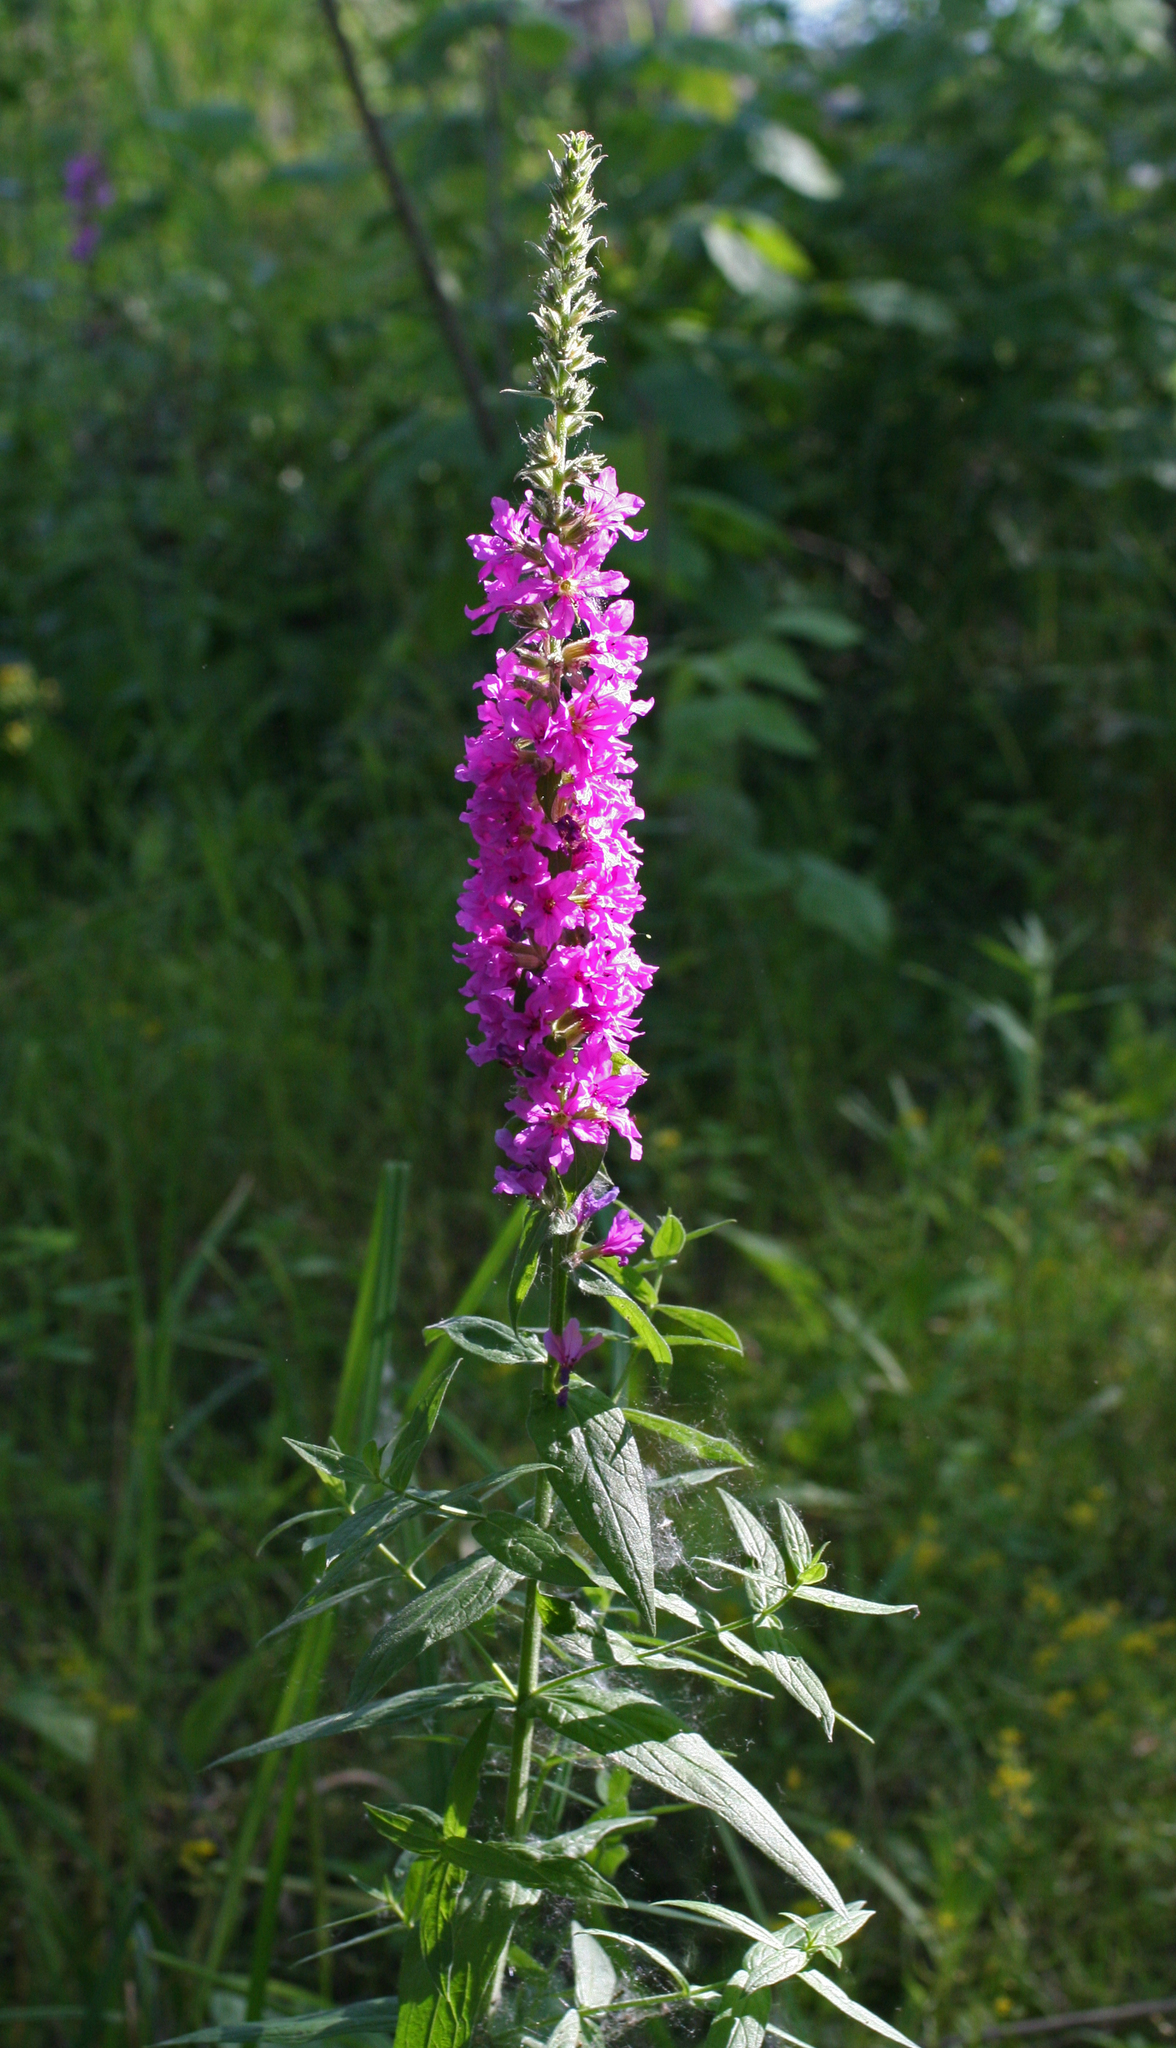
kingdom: Plantae
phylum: Tracheophyta
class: Magnoliopsida
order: Myrtales
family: Lythraceae
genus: Lythrum
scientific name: Lythrum salicaria
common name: Purple loosestrife
